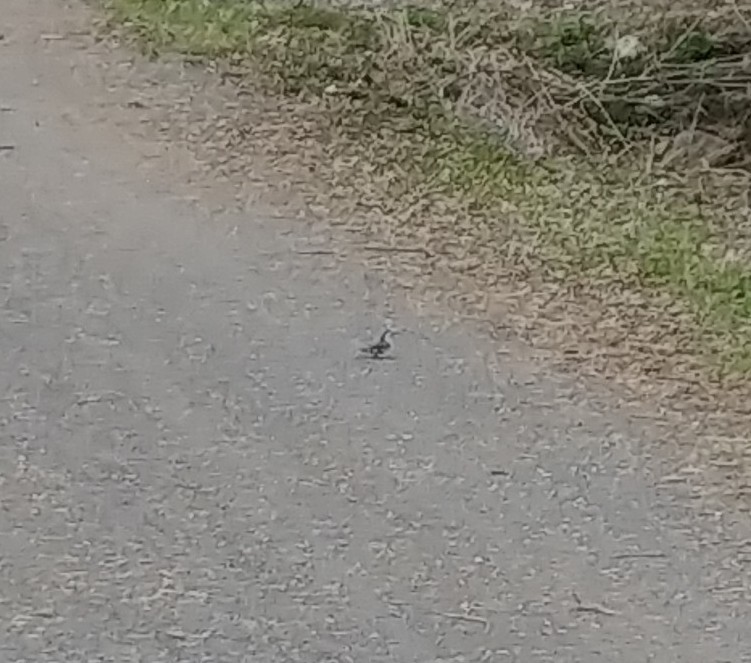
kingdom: Animalia
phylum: Chordata
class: Aves
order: Passeriformes
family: Sittidae
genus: Sitta
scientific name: Sitta carolinensis
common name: White-breasted nuthatch
